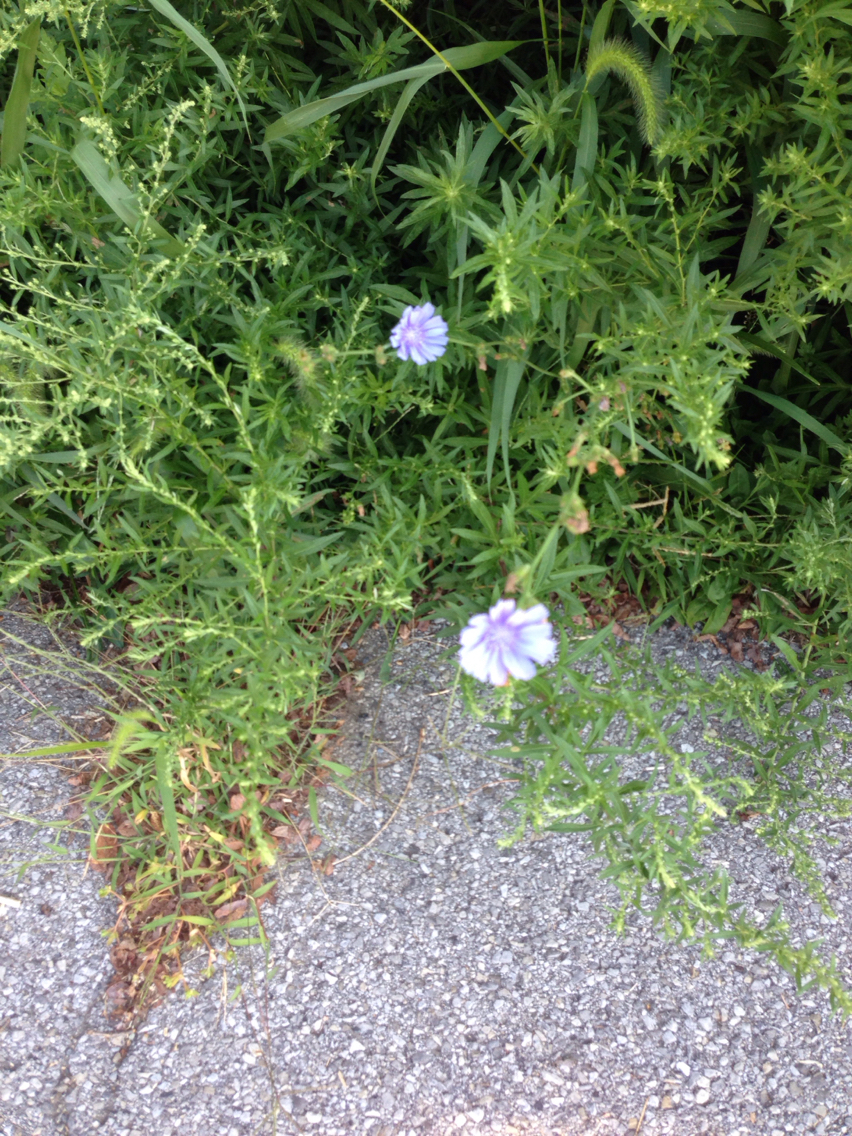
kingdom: Plantae
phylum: Tracheophyta
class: Magnoliopsida
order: Asterales
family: Asteraceae
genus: Cichorium
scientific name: Cichorium intybus
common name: Chicory
